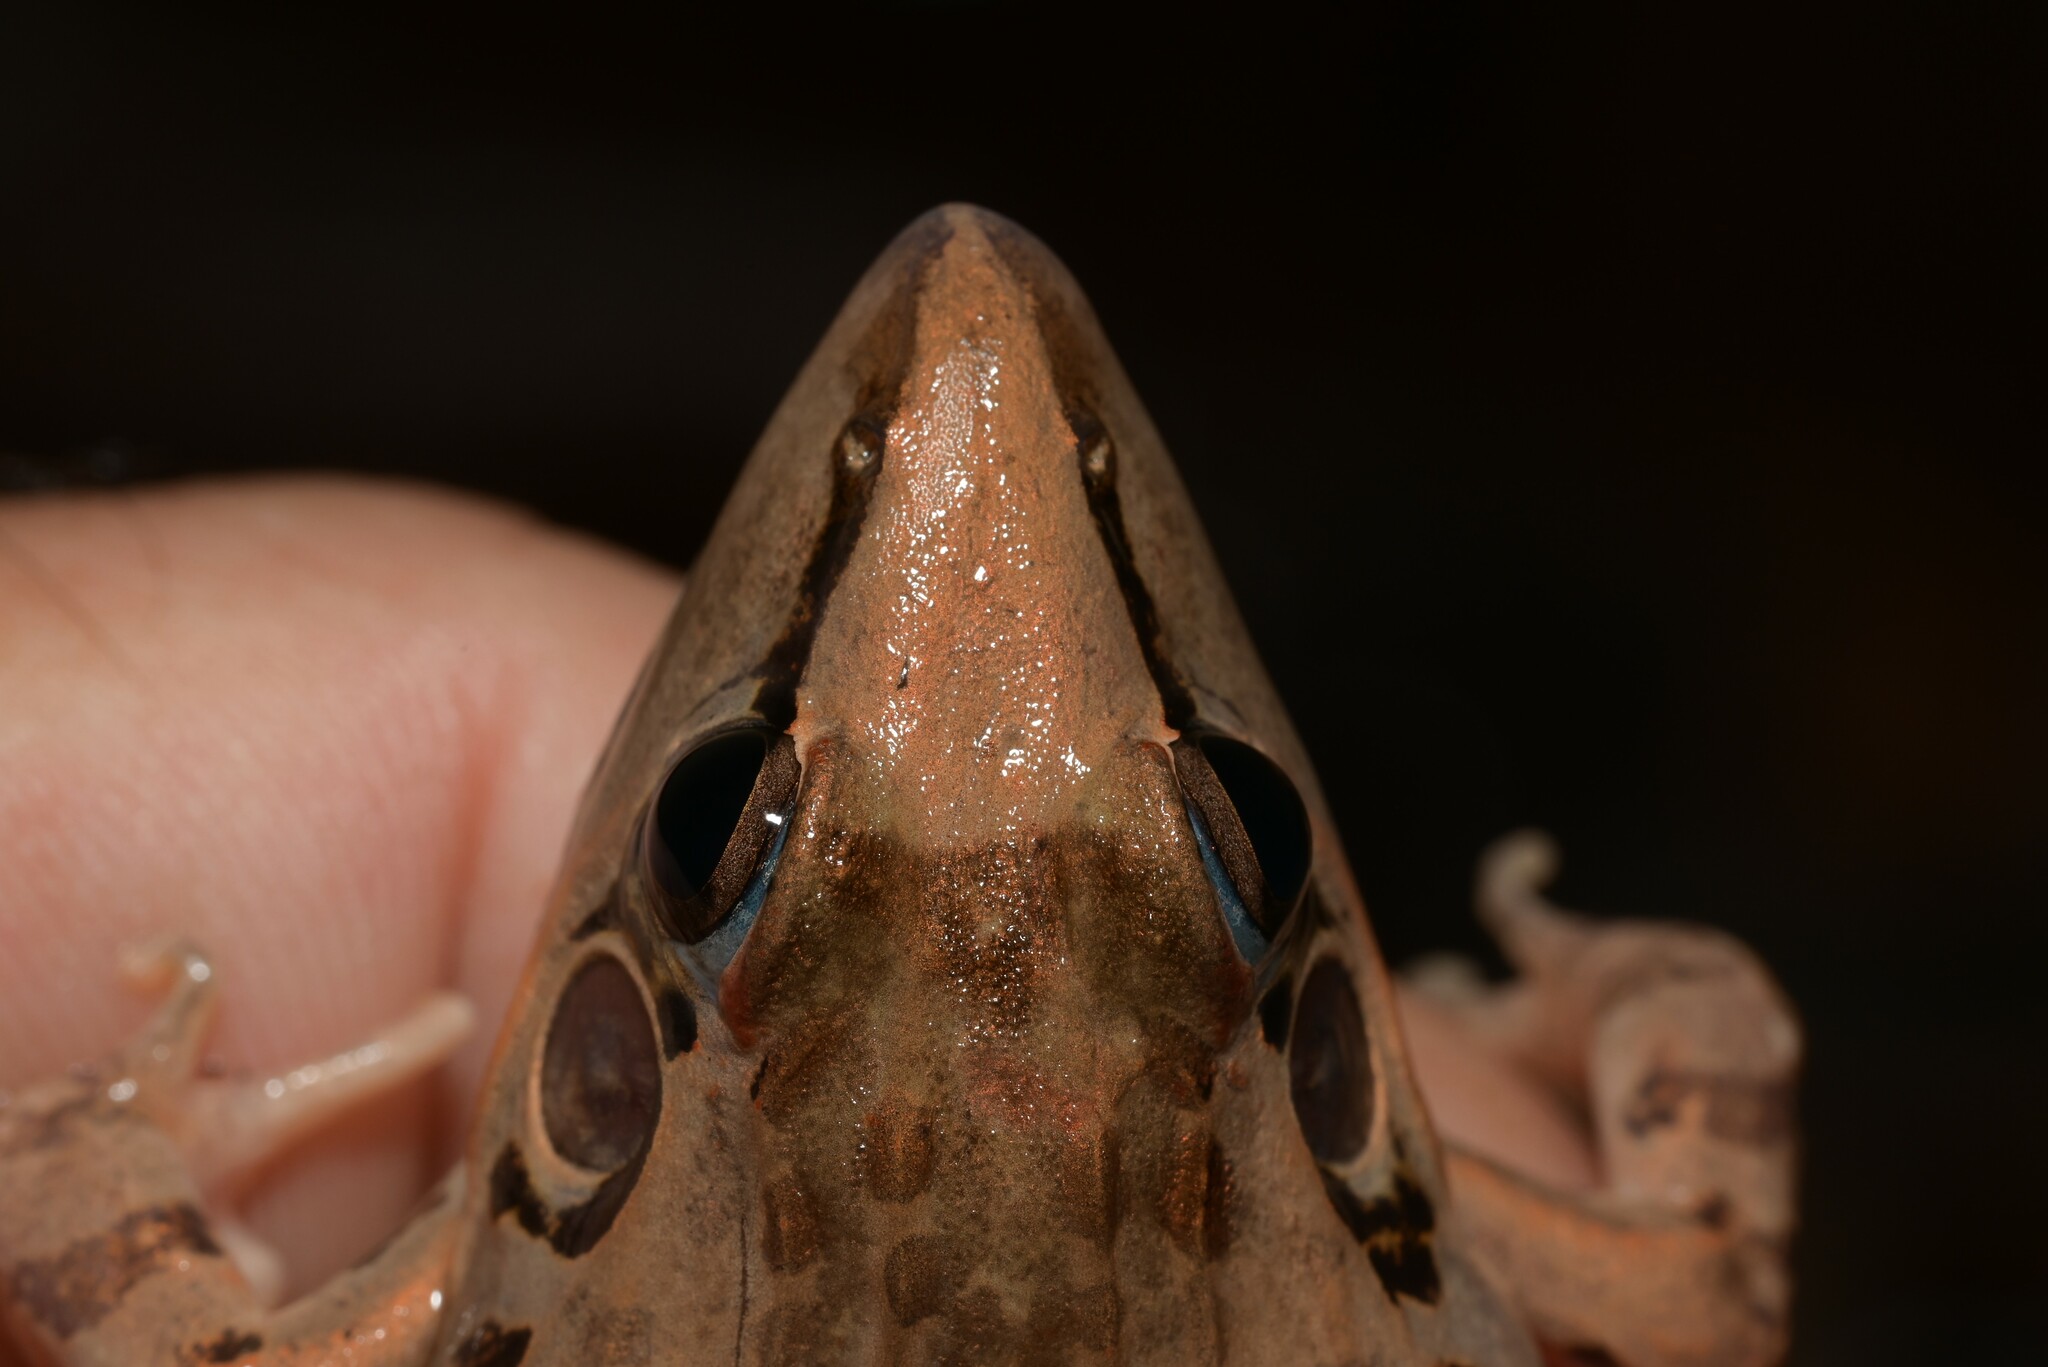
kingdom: Animalia
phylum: Chordata
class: Amphibia
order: Anura
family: Ptychadenidae
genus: Ptychadena
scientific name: Ptychadena oxyrhynchus
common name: Sharp-nosed ridged frog
